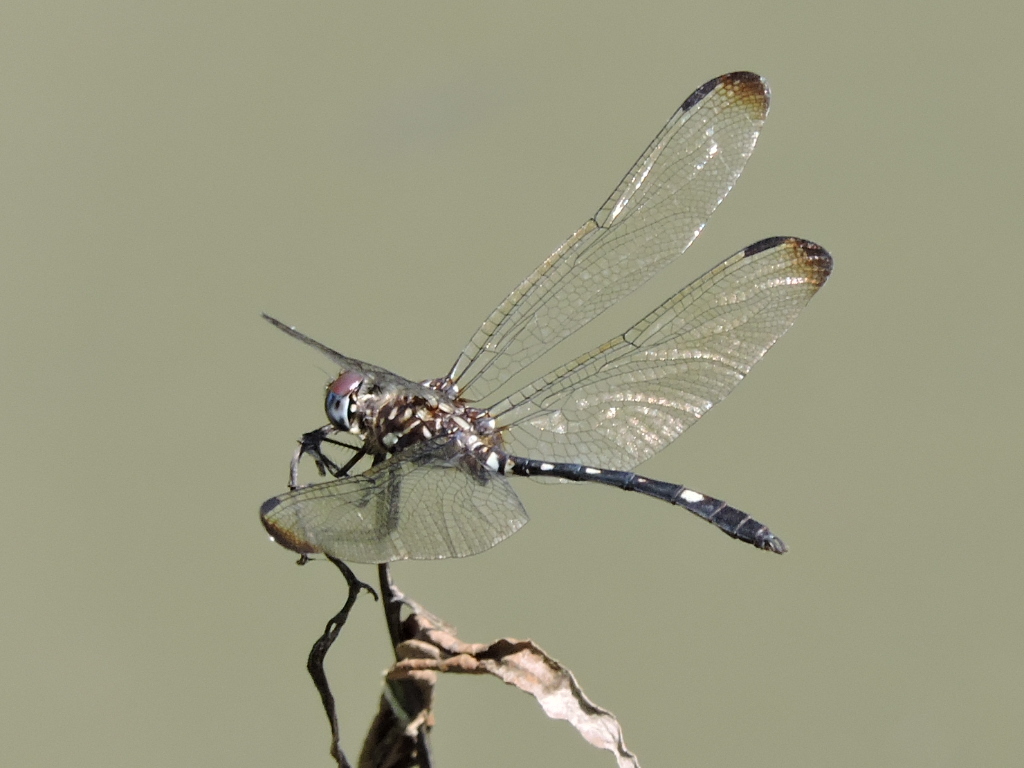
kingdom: Animalia
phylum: Arthropoda
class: Insecta
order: Odonata
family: Libellulidae
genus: Dythemis
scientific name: Dythemis velox
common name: Swift setwing
